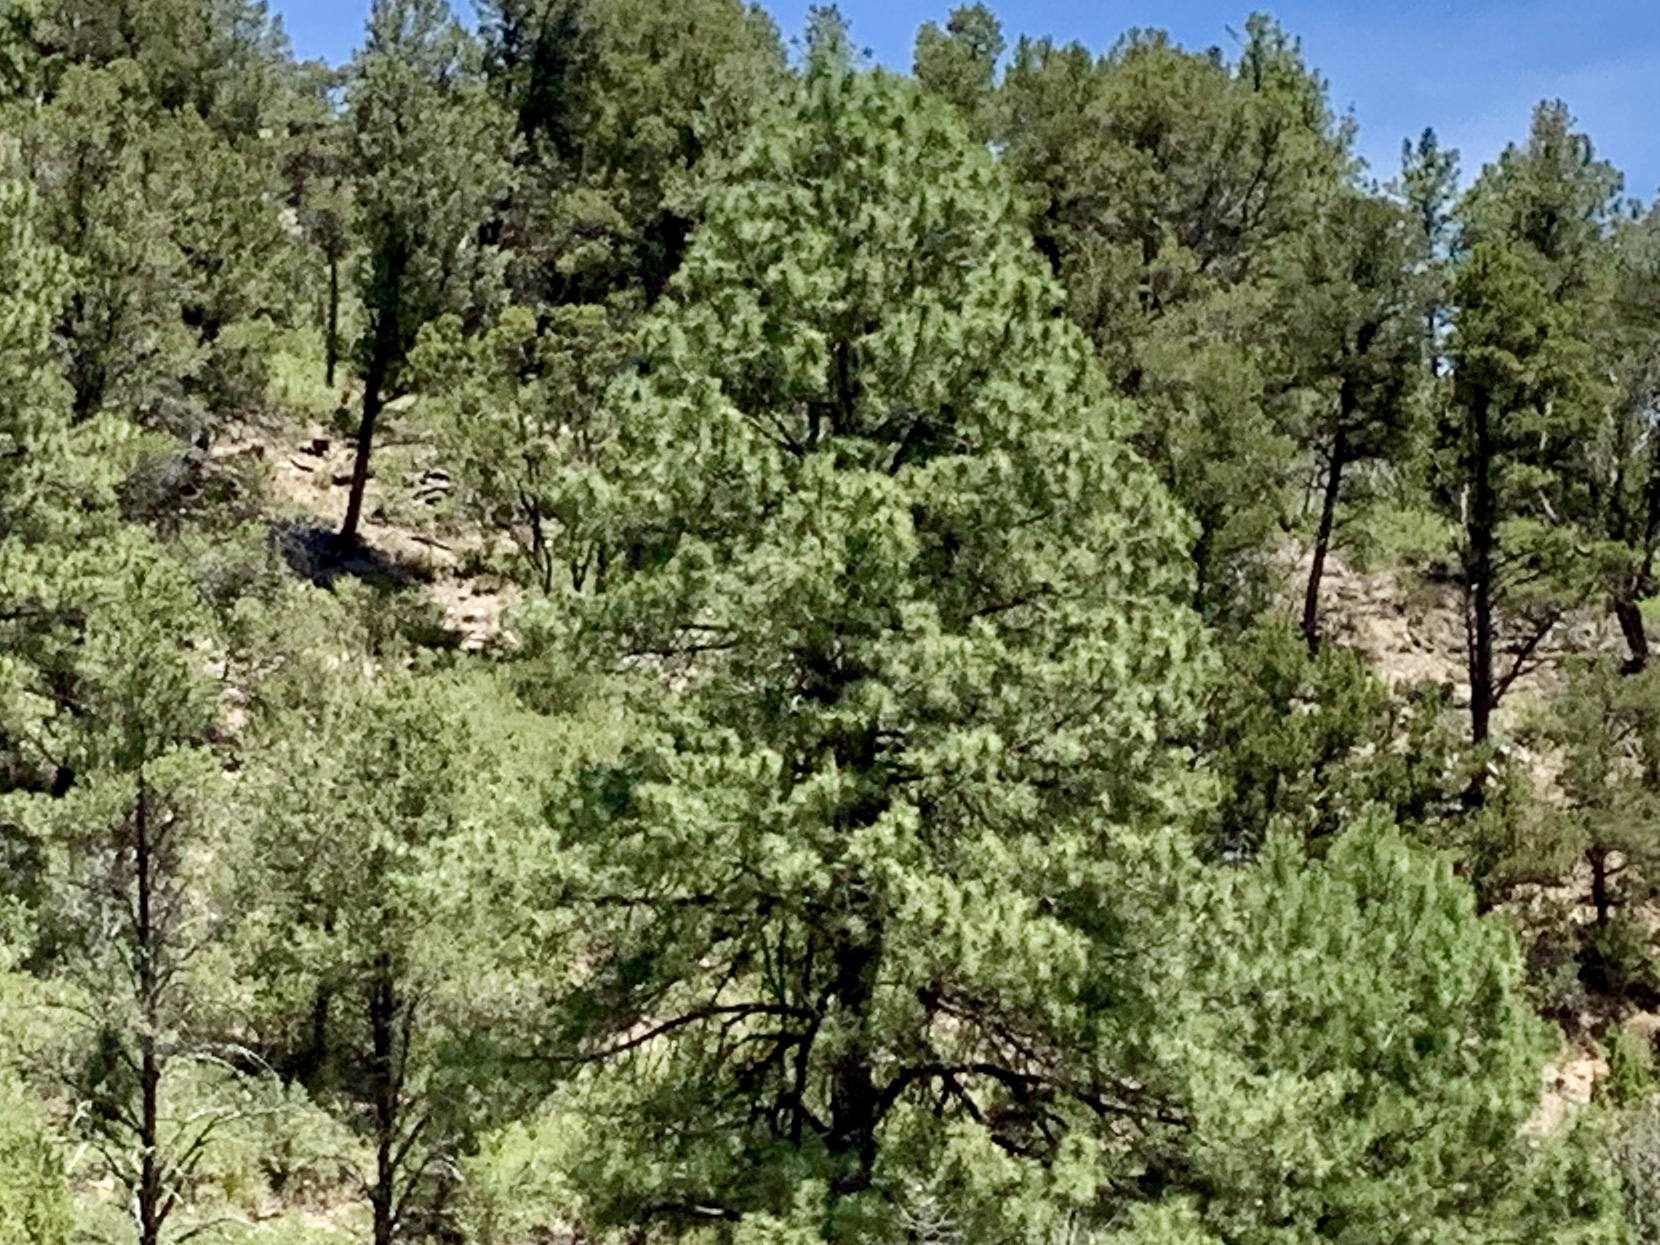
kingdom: Plantae
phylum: Tracheophyta
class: Pinopsida
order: Pinales
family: Pinaceae
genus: Pinus
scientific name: Pinus ponderosa
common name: Western yellow-pine
